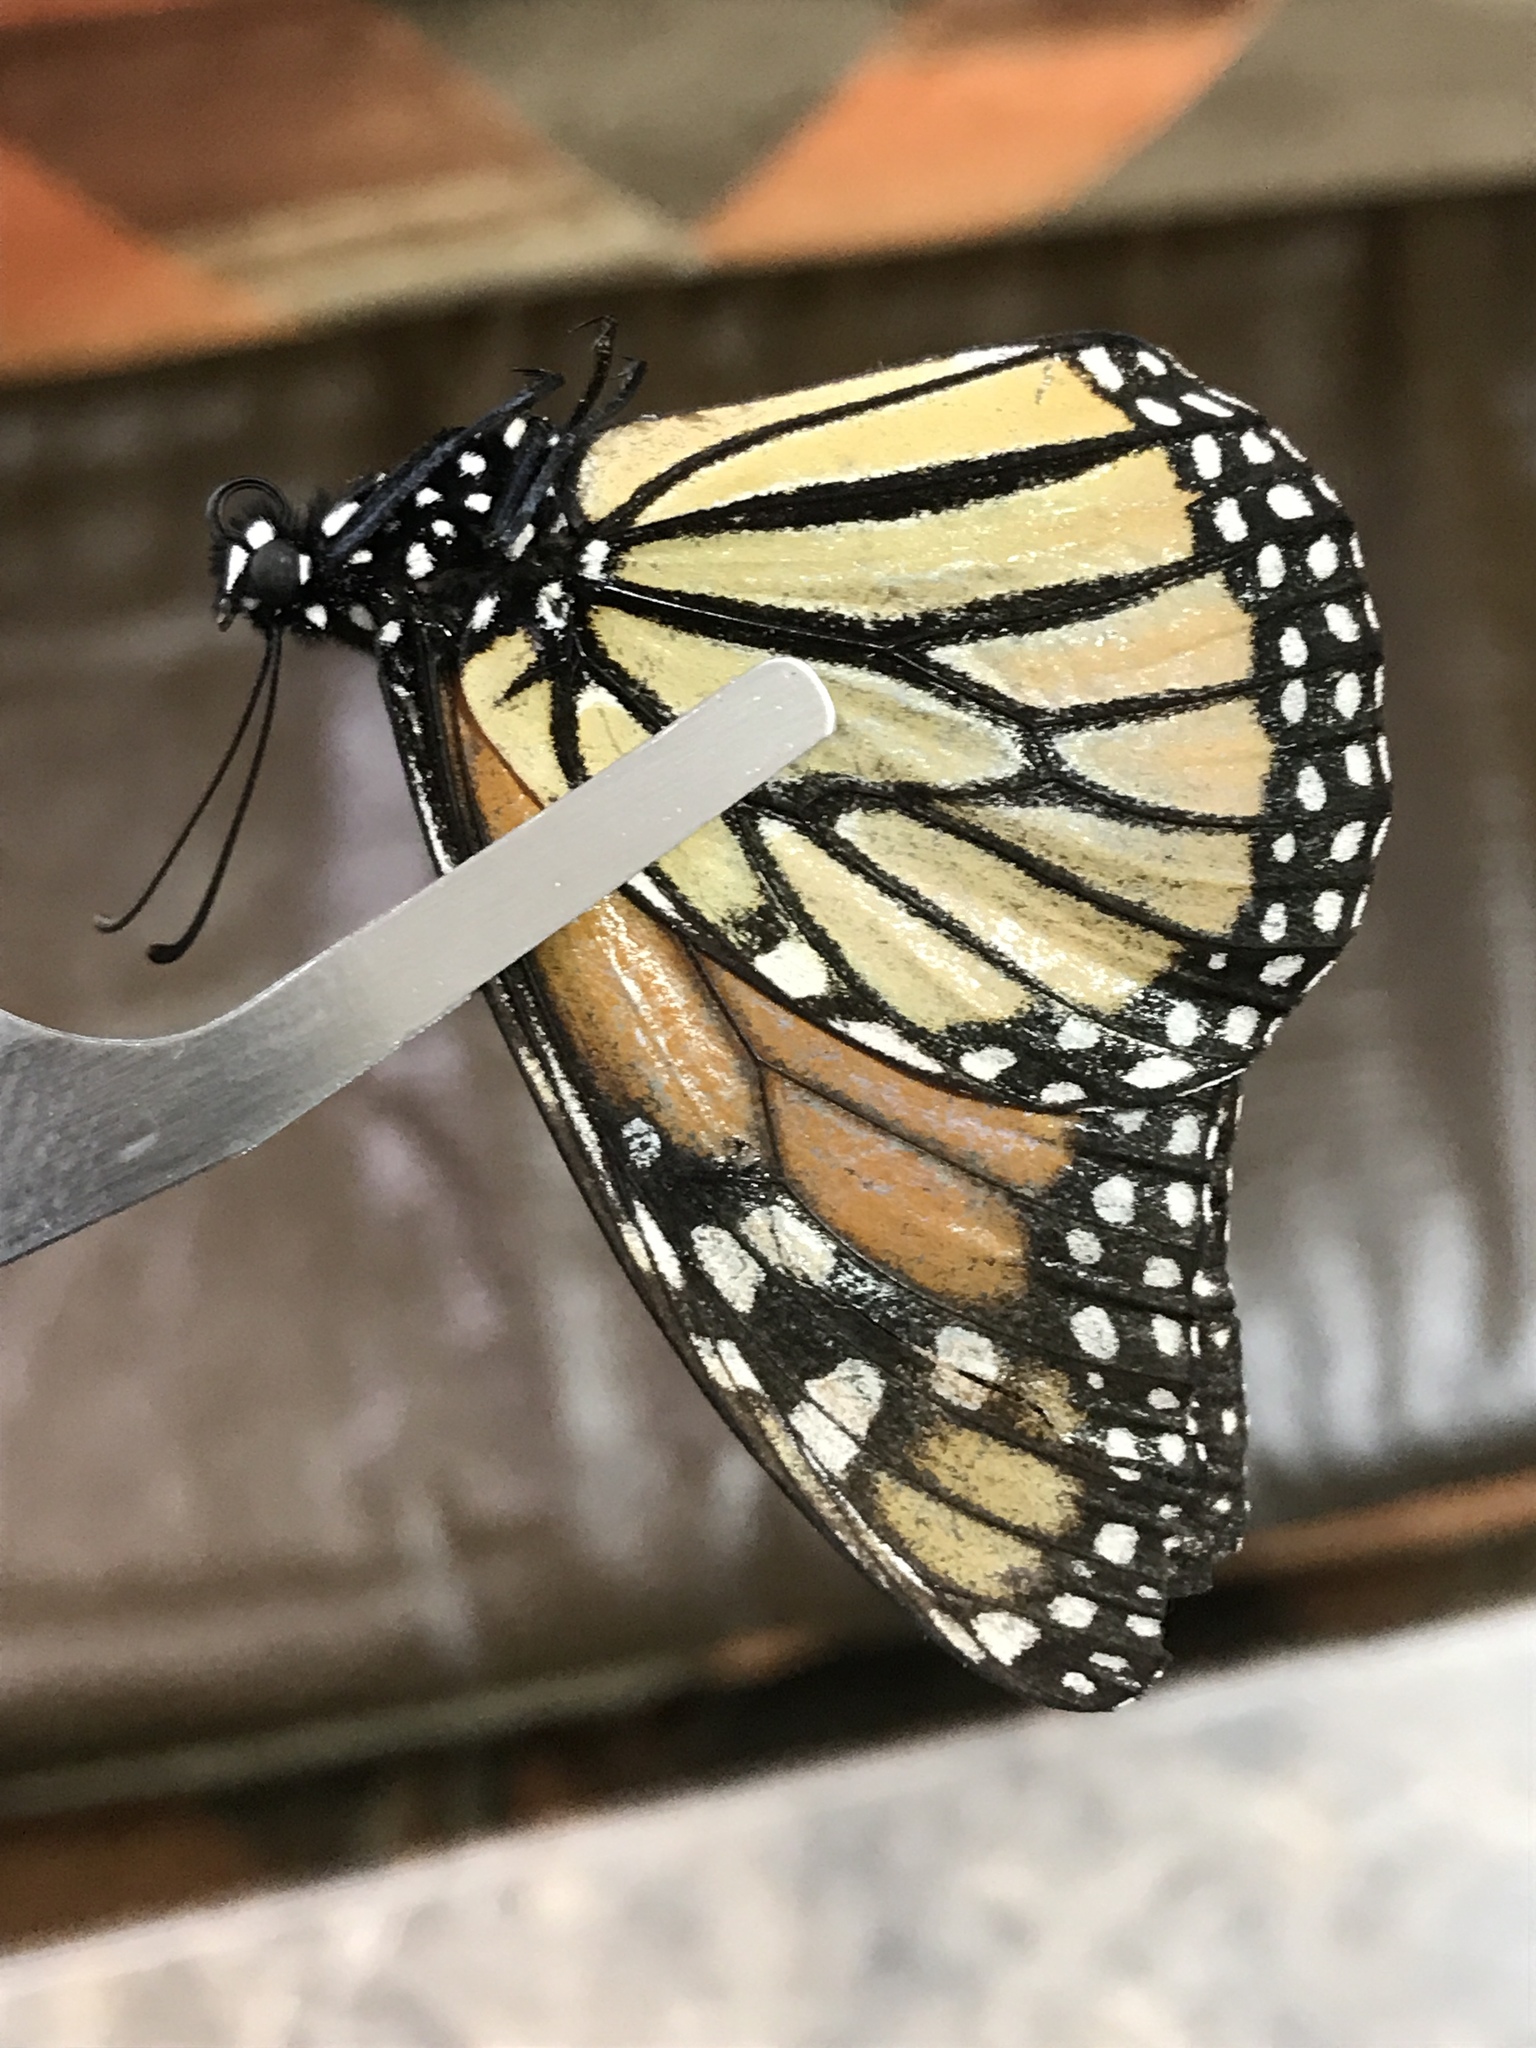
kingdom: Animalia
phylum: Arthropoda
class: Insecta
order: Lepidoptera
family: Nymphalidae
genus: Danaus
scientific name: Danaus plexippus
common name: Monarch
